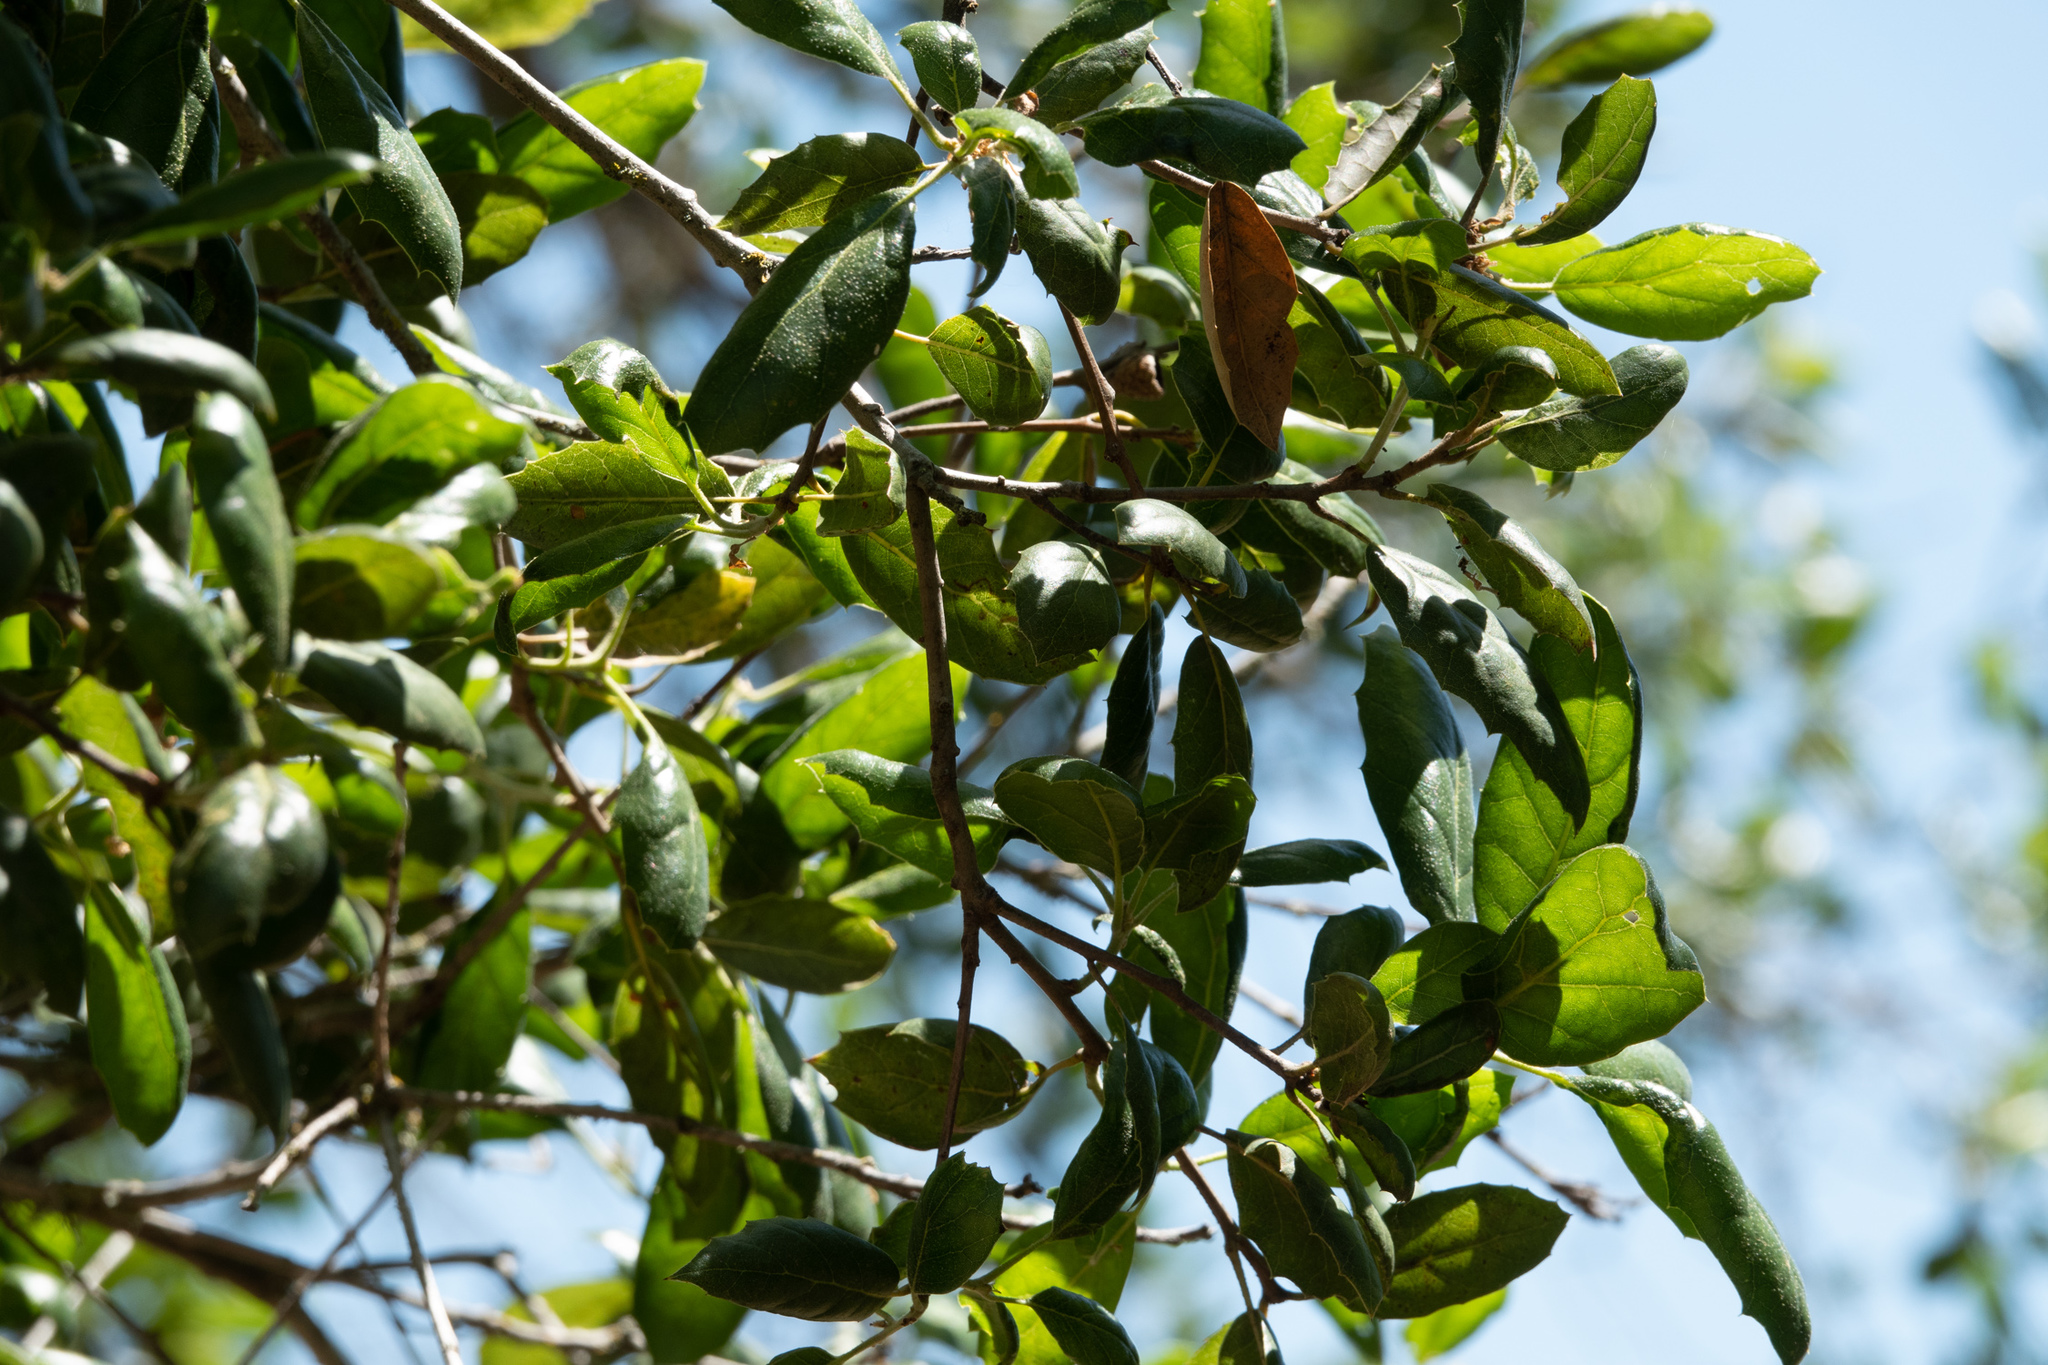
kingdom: Plantae
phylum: Tracheophyta
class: Magnoliopsida
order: Fagales
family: Fagaceae
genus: Quercus
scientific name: Quercus agrifolia
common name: California live oak
